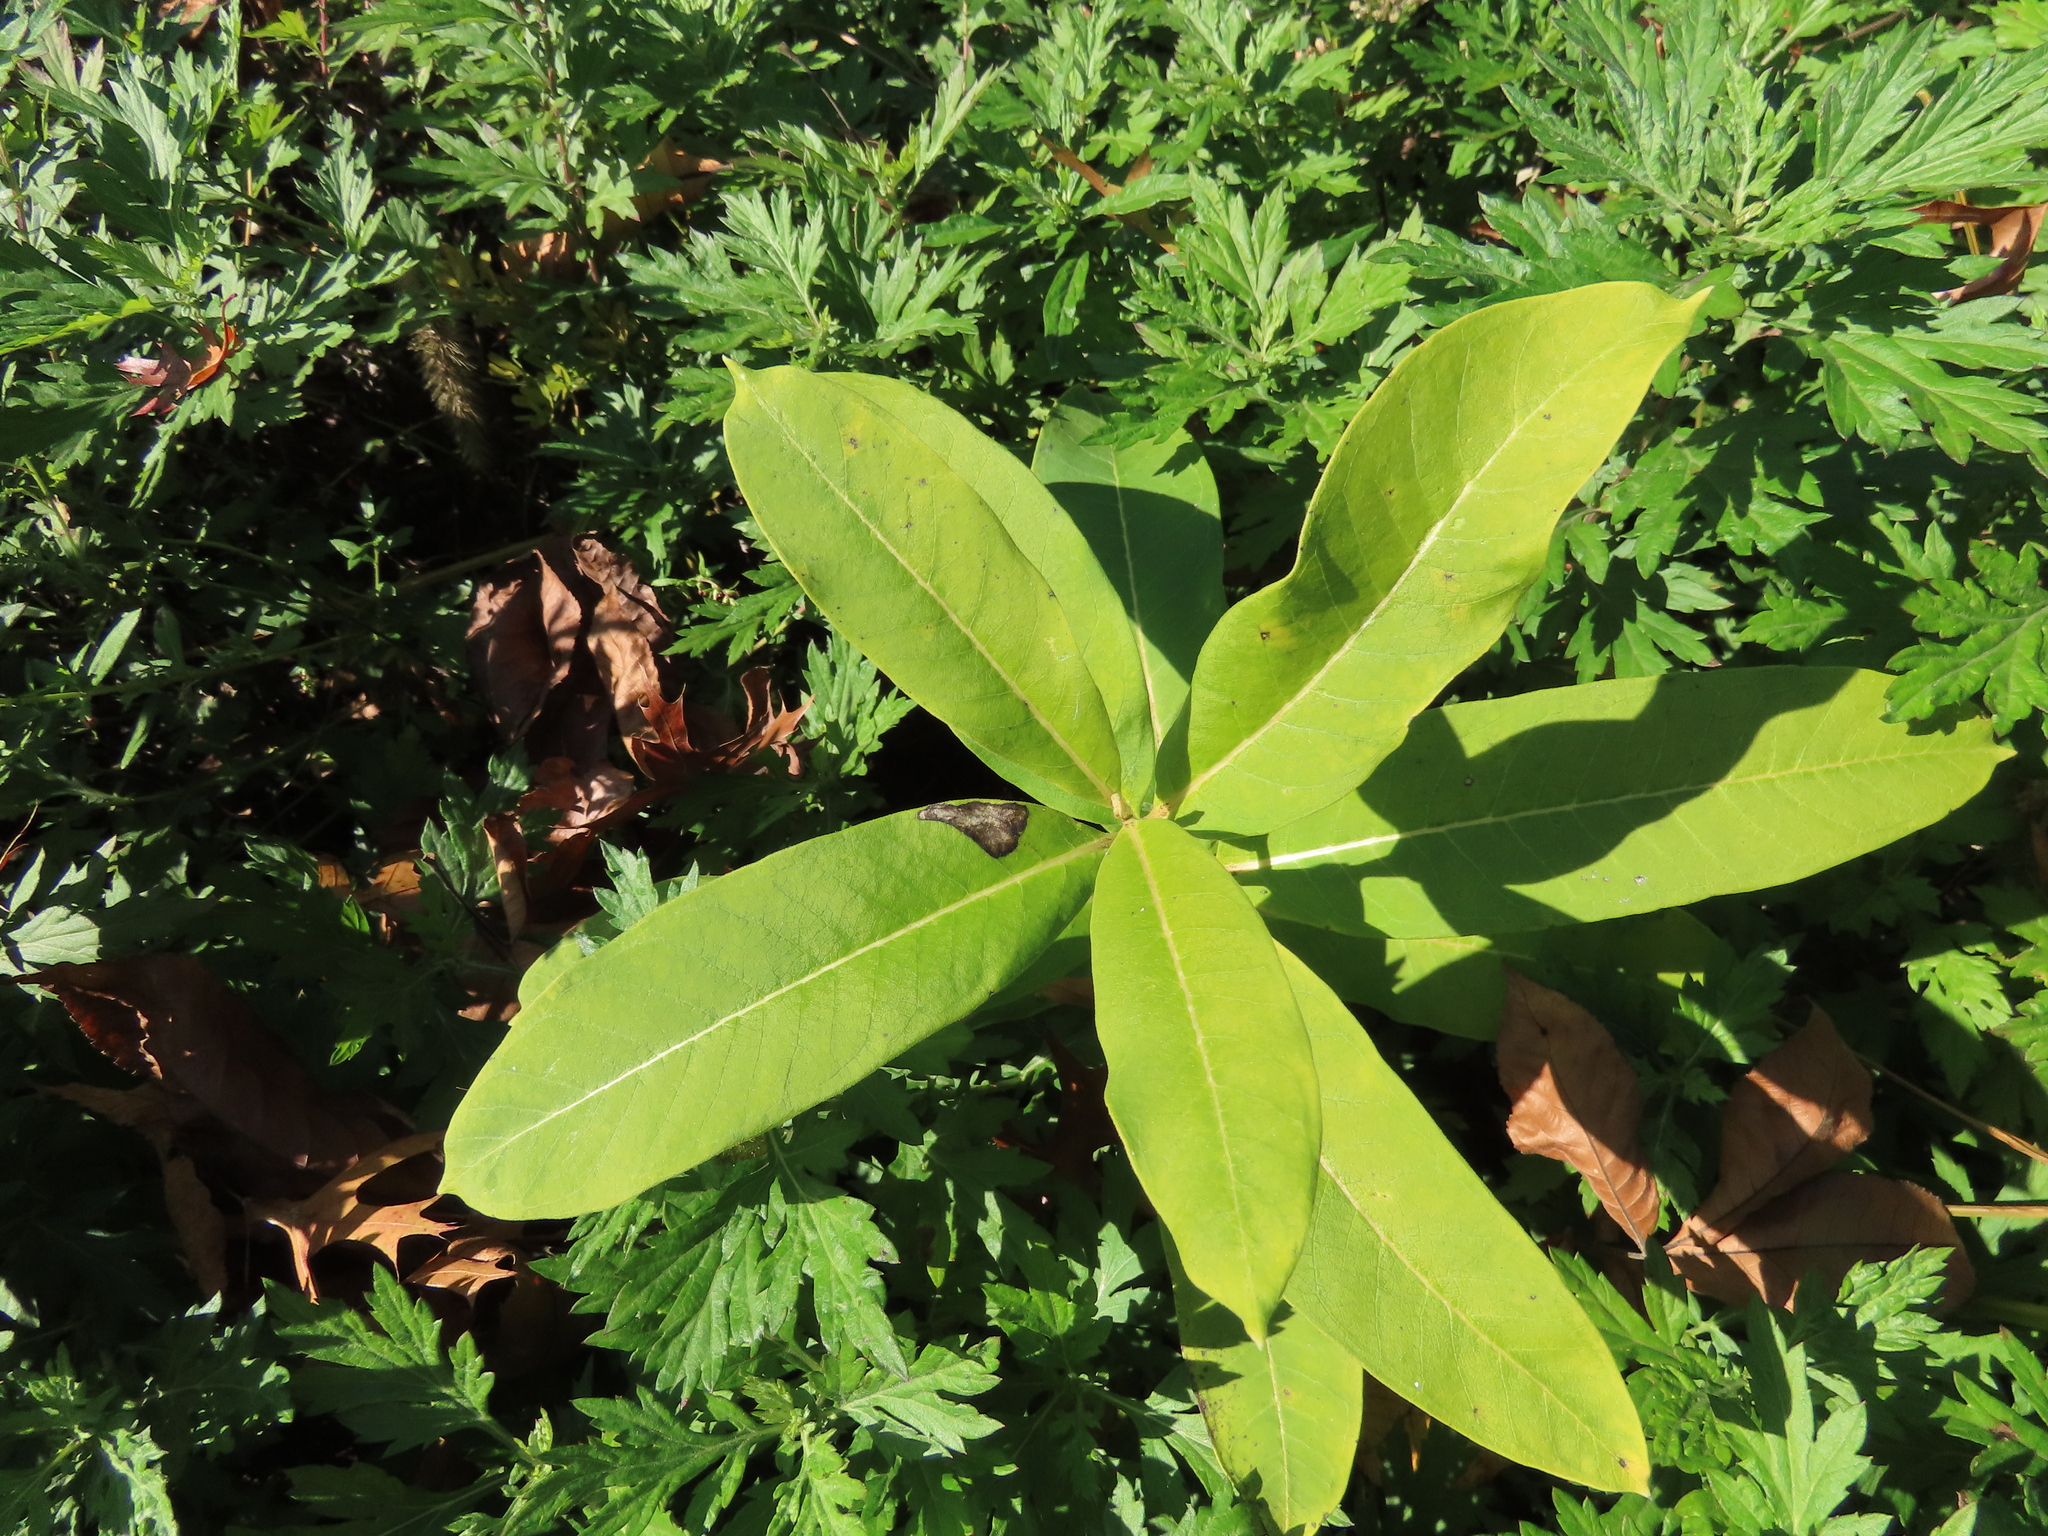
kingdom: Plantae
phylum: Tracheophyta
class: Magnoliopsida
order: Gentianales
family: Apocynaceae
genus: Asclepias
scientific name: Asclepias syriaca
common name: Common milkweed
